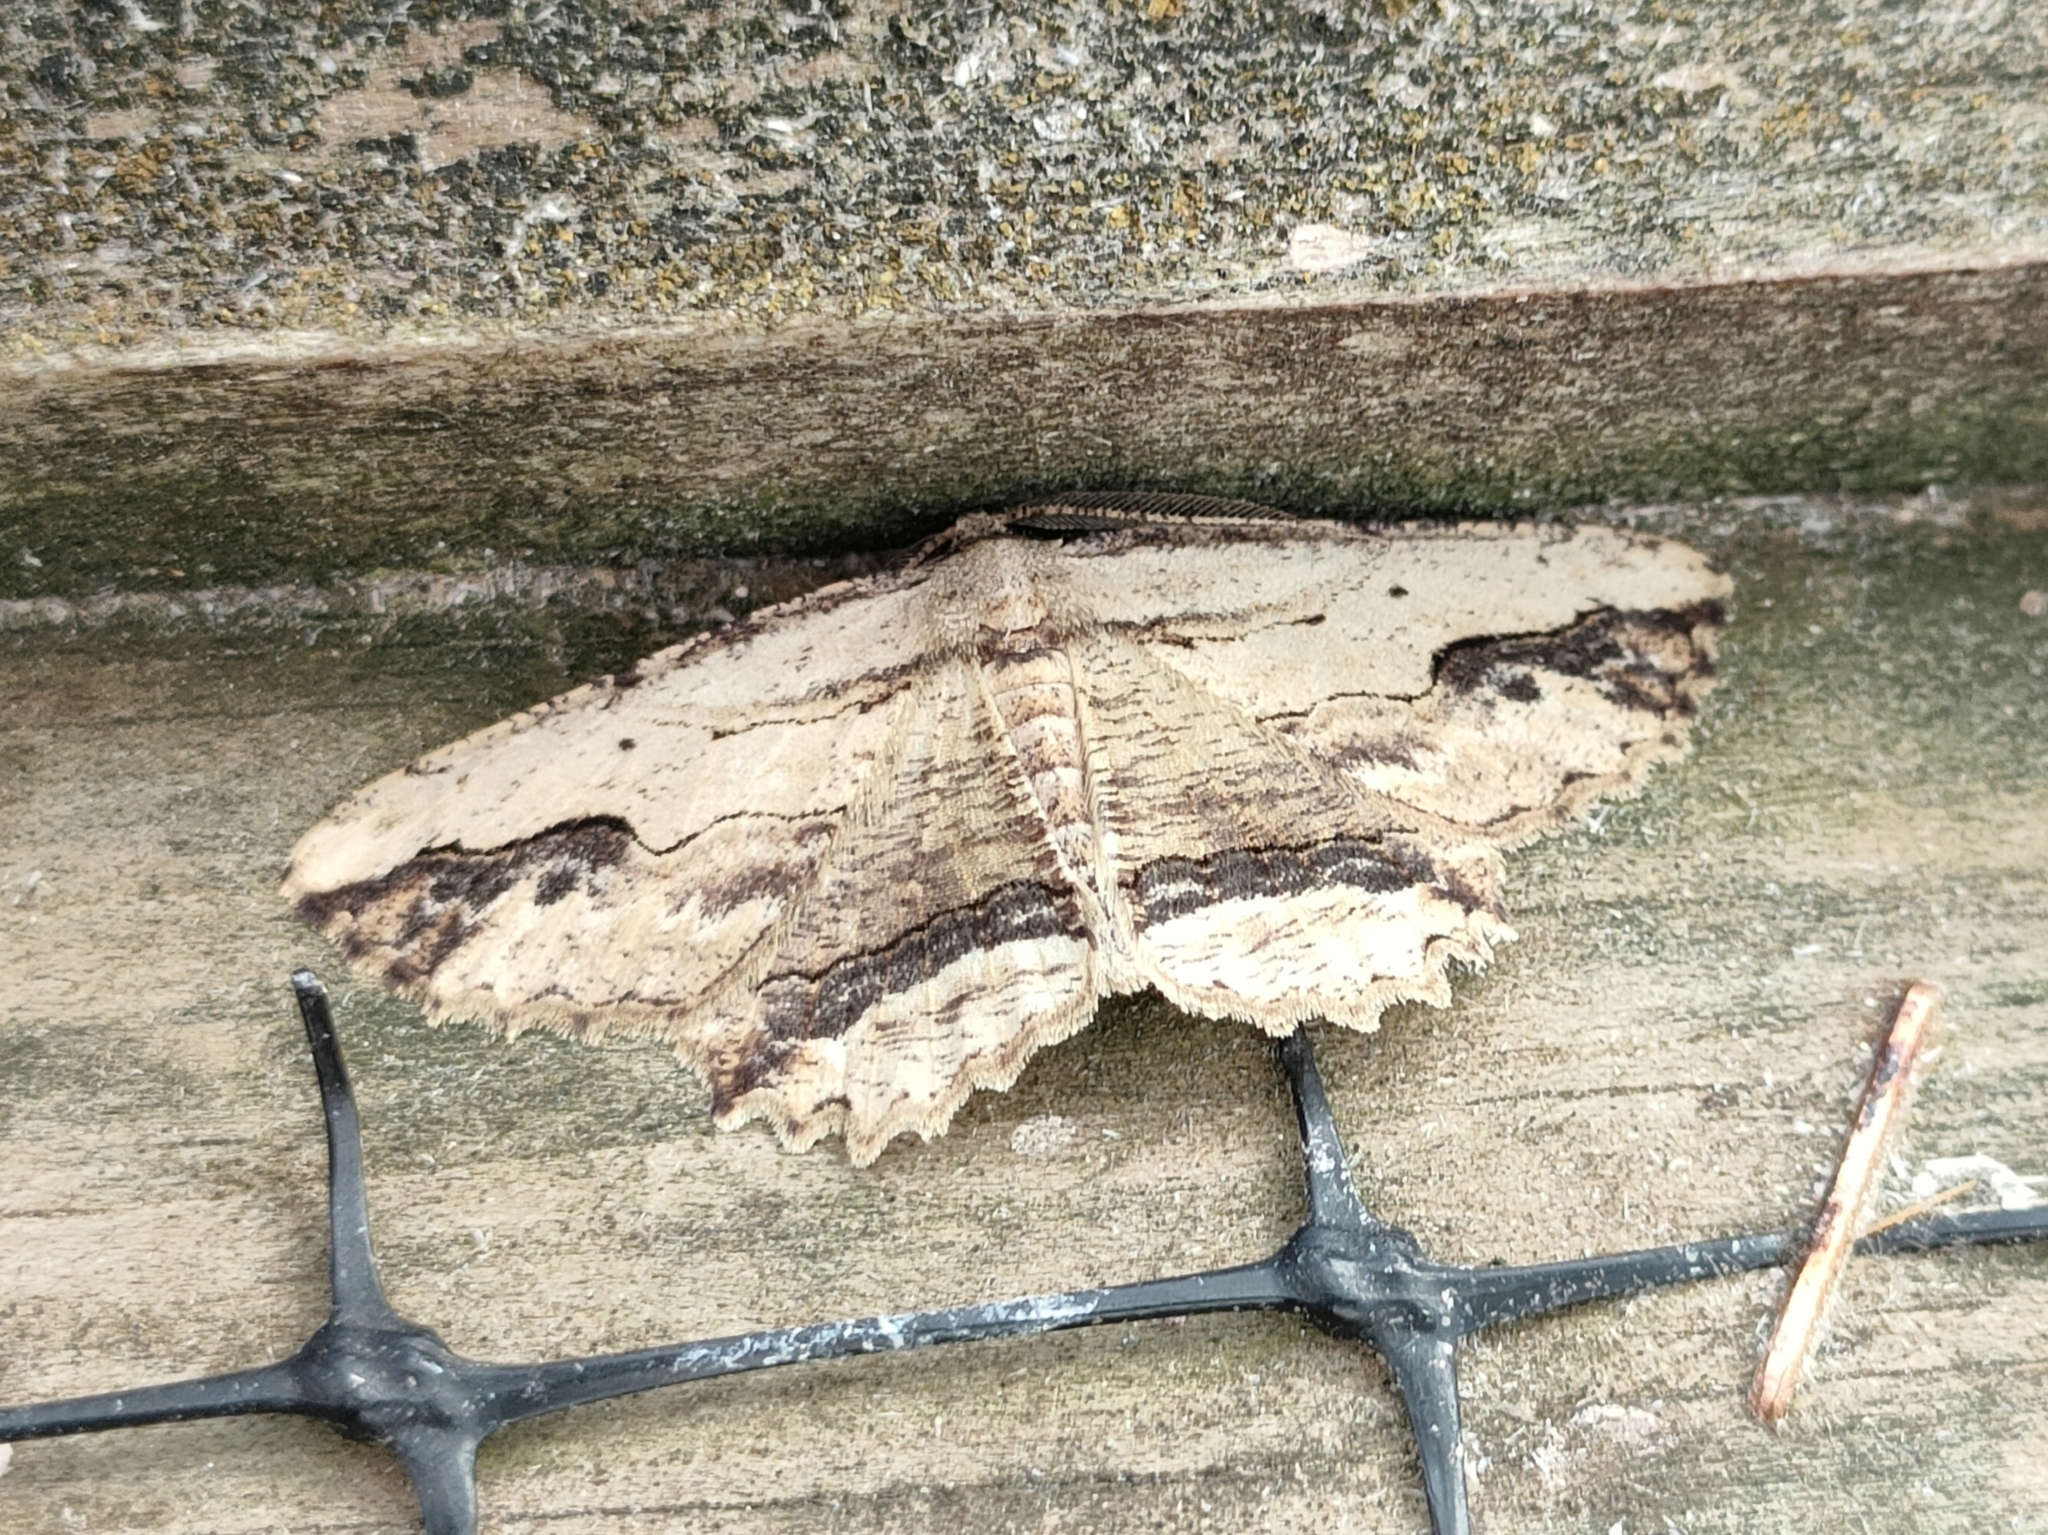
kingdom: Animalia
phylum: Arthropoda
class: Insecta
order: Lepidoptera
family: Geometridae
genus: Menophra
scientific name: Menophra abruptaria
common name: Waved umber
